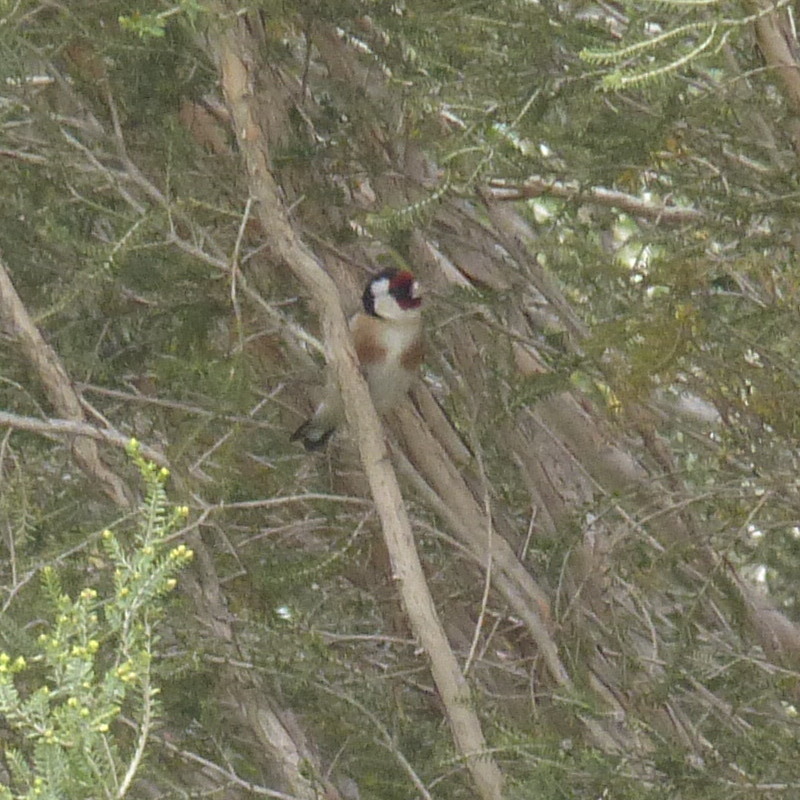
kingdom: Animalia
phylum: Chordata
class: Aves
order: Passeriformes
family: Fringillidae
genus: Carduelis
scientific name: Carduelis carduelis
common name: European goldfinch
